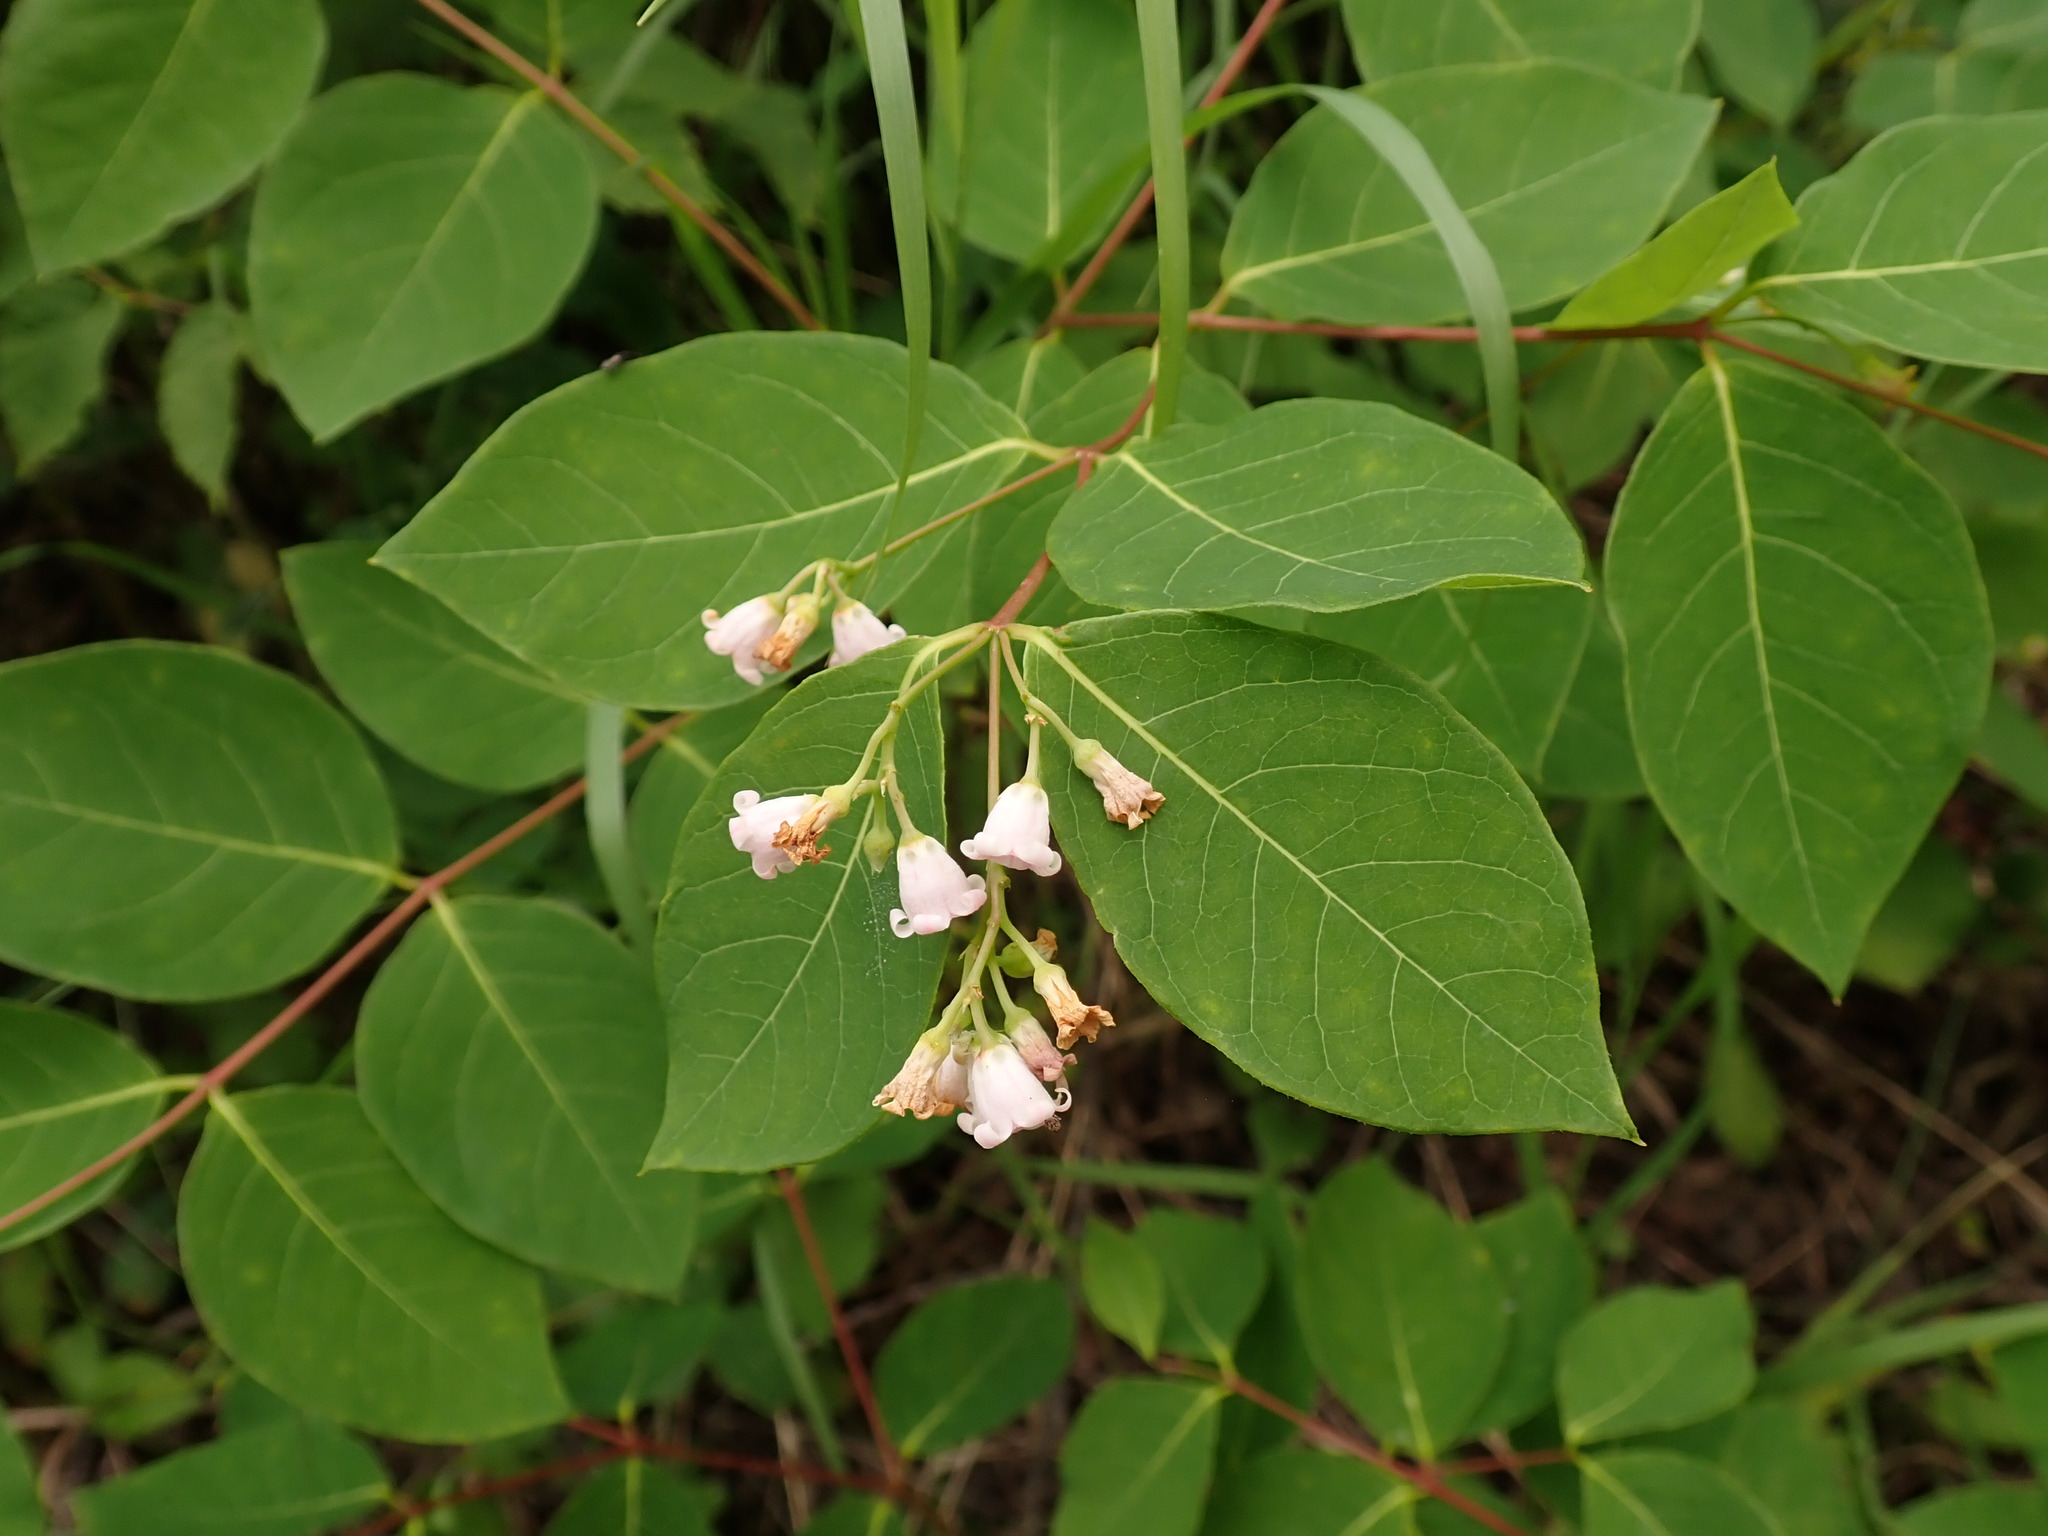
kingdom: Plantae
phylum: Tracheophyta
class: Magnoliopsida
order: Gentianales
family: Apocynaceae
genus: Apocynum
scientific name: Apocynum androsaemifolium
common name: Spreading dogbane
